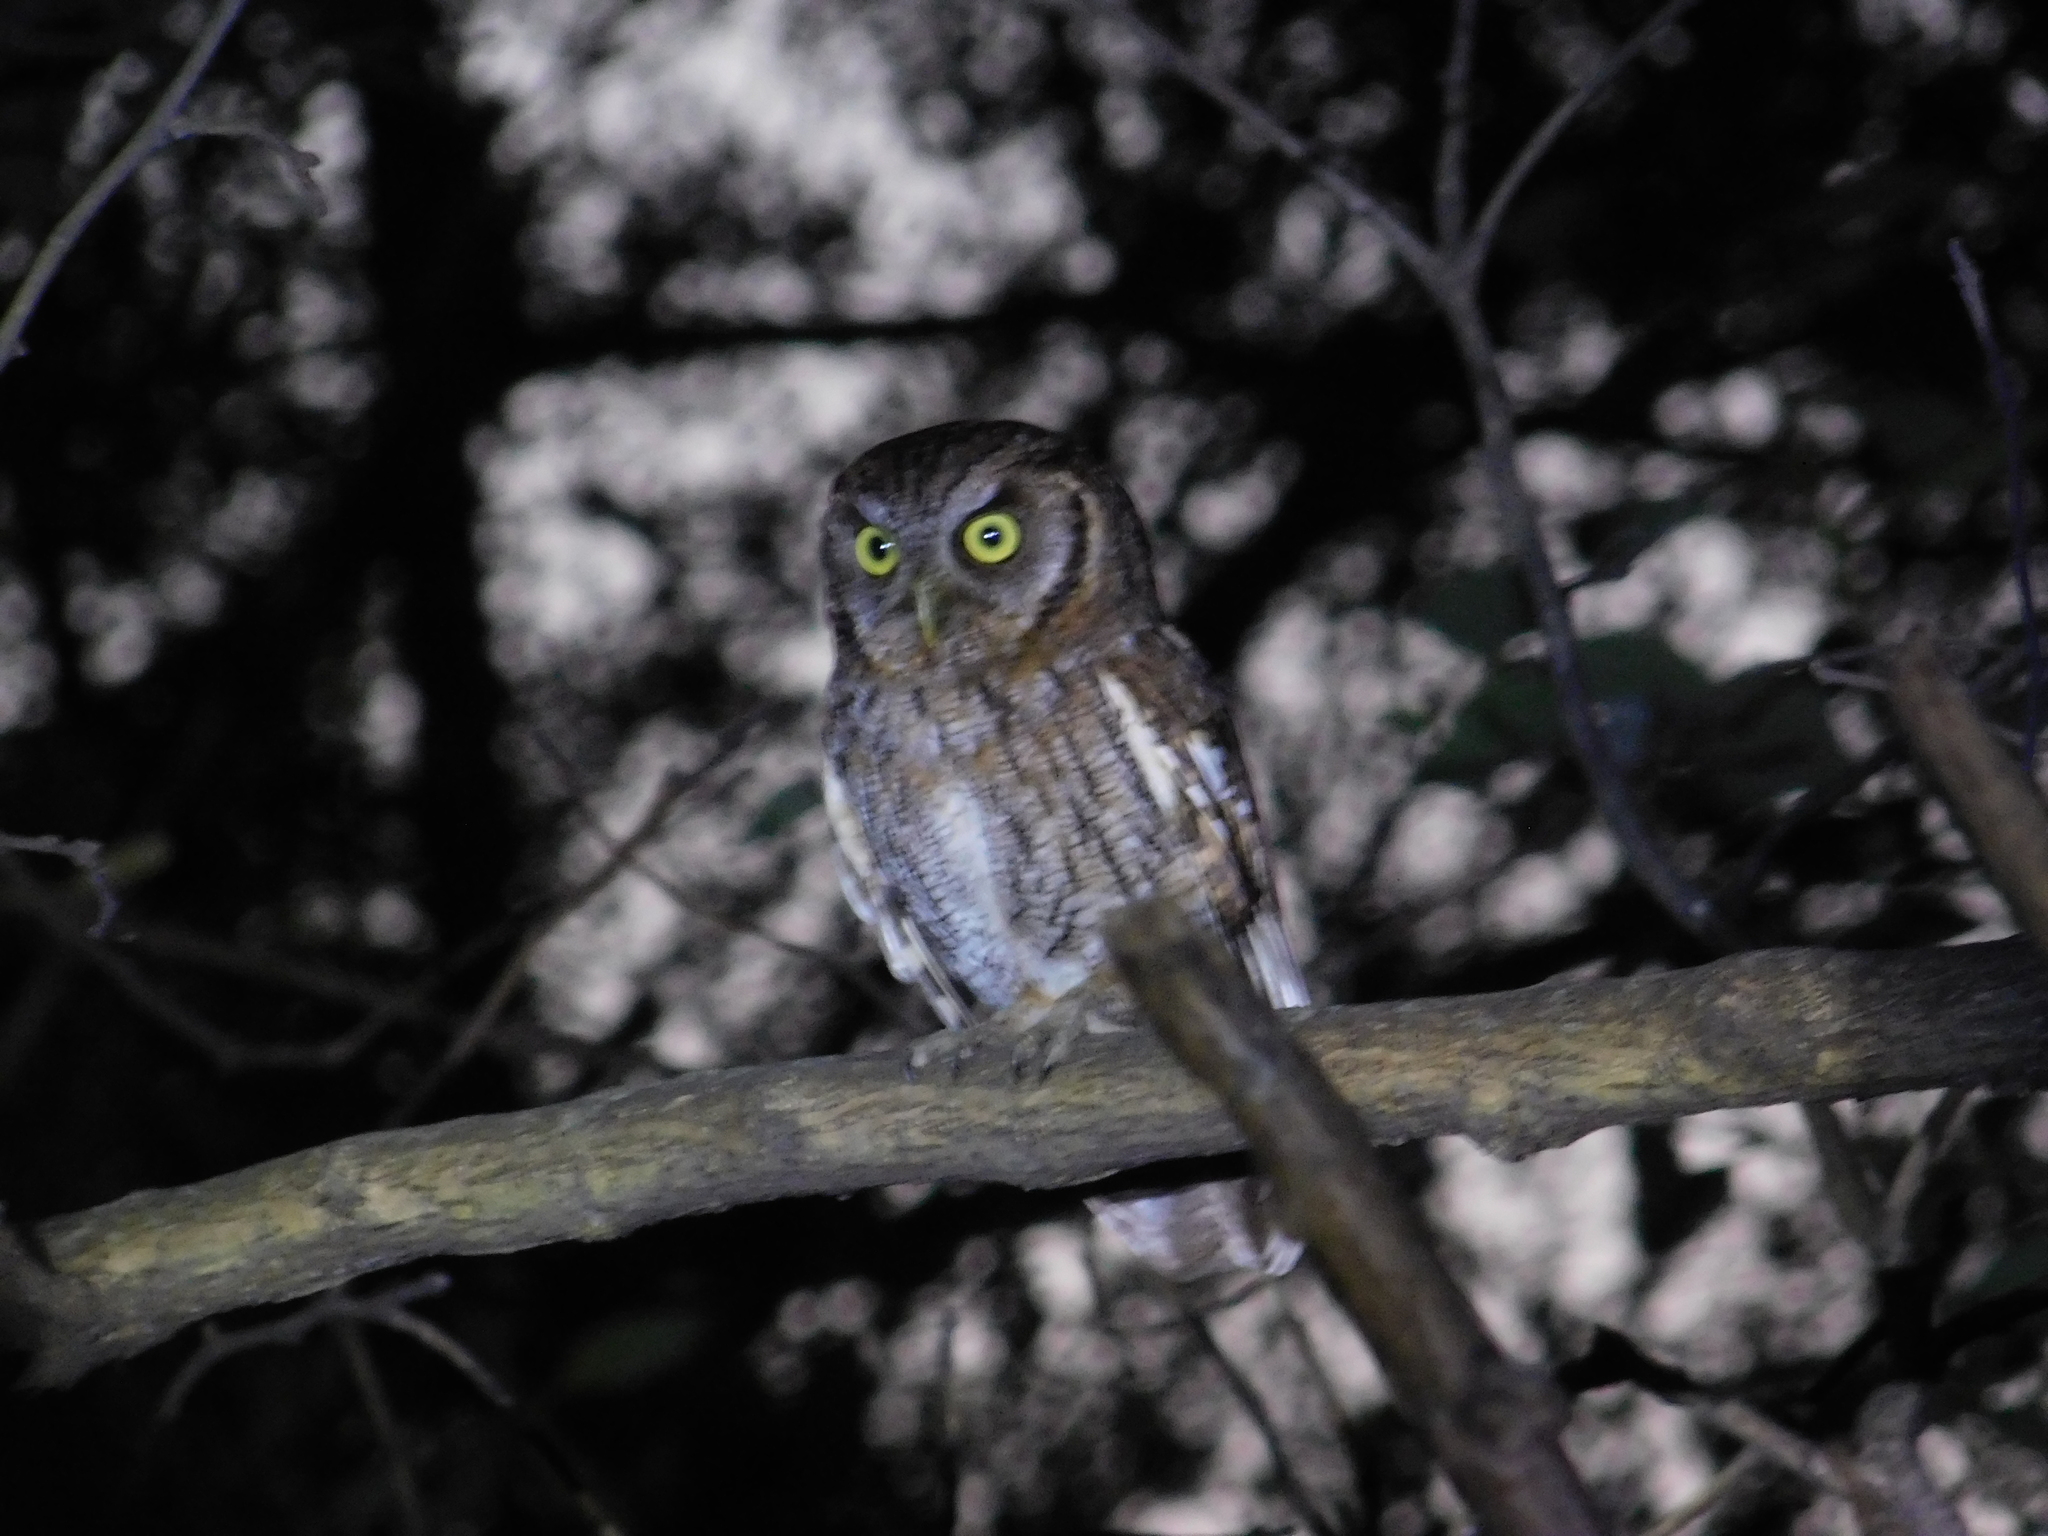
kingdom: Animalia
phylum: Chordata
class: Aves
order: Strigiformes
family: Strigidae
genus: Megascops
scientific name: Megascops choliba
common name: Tropical screech-owl
